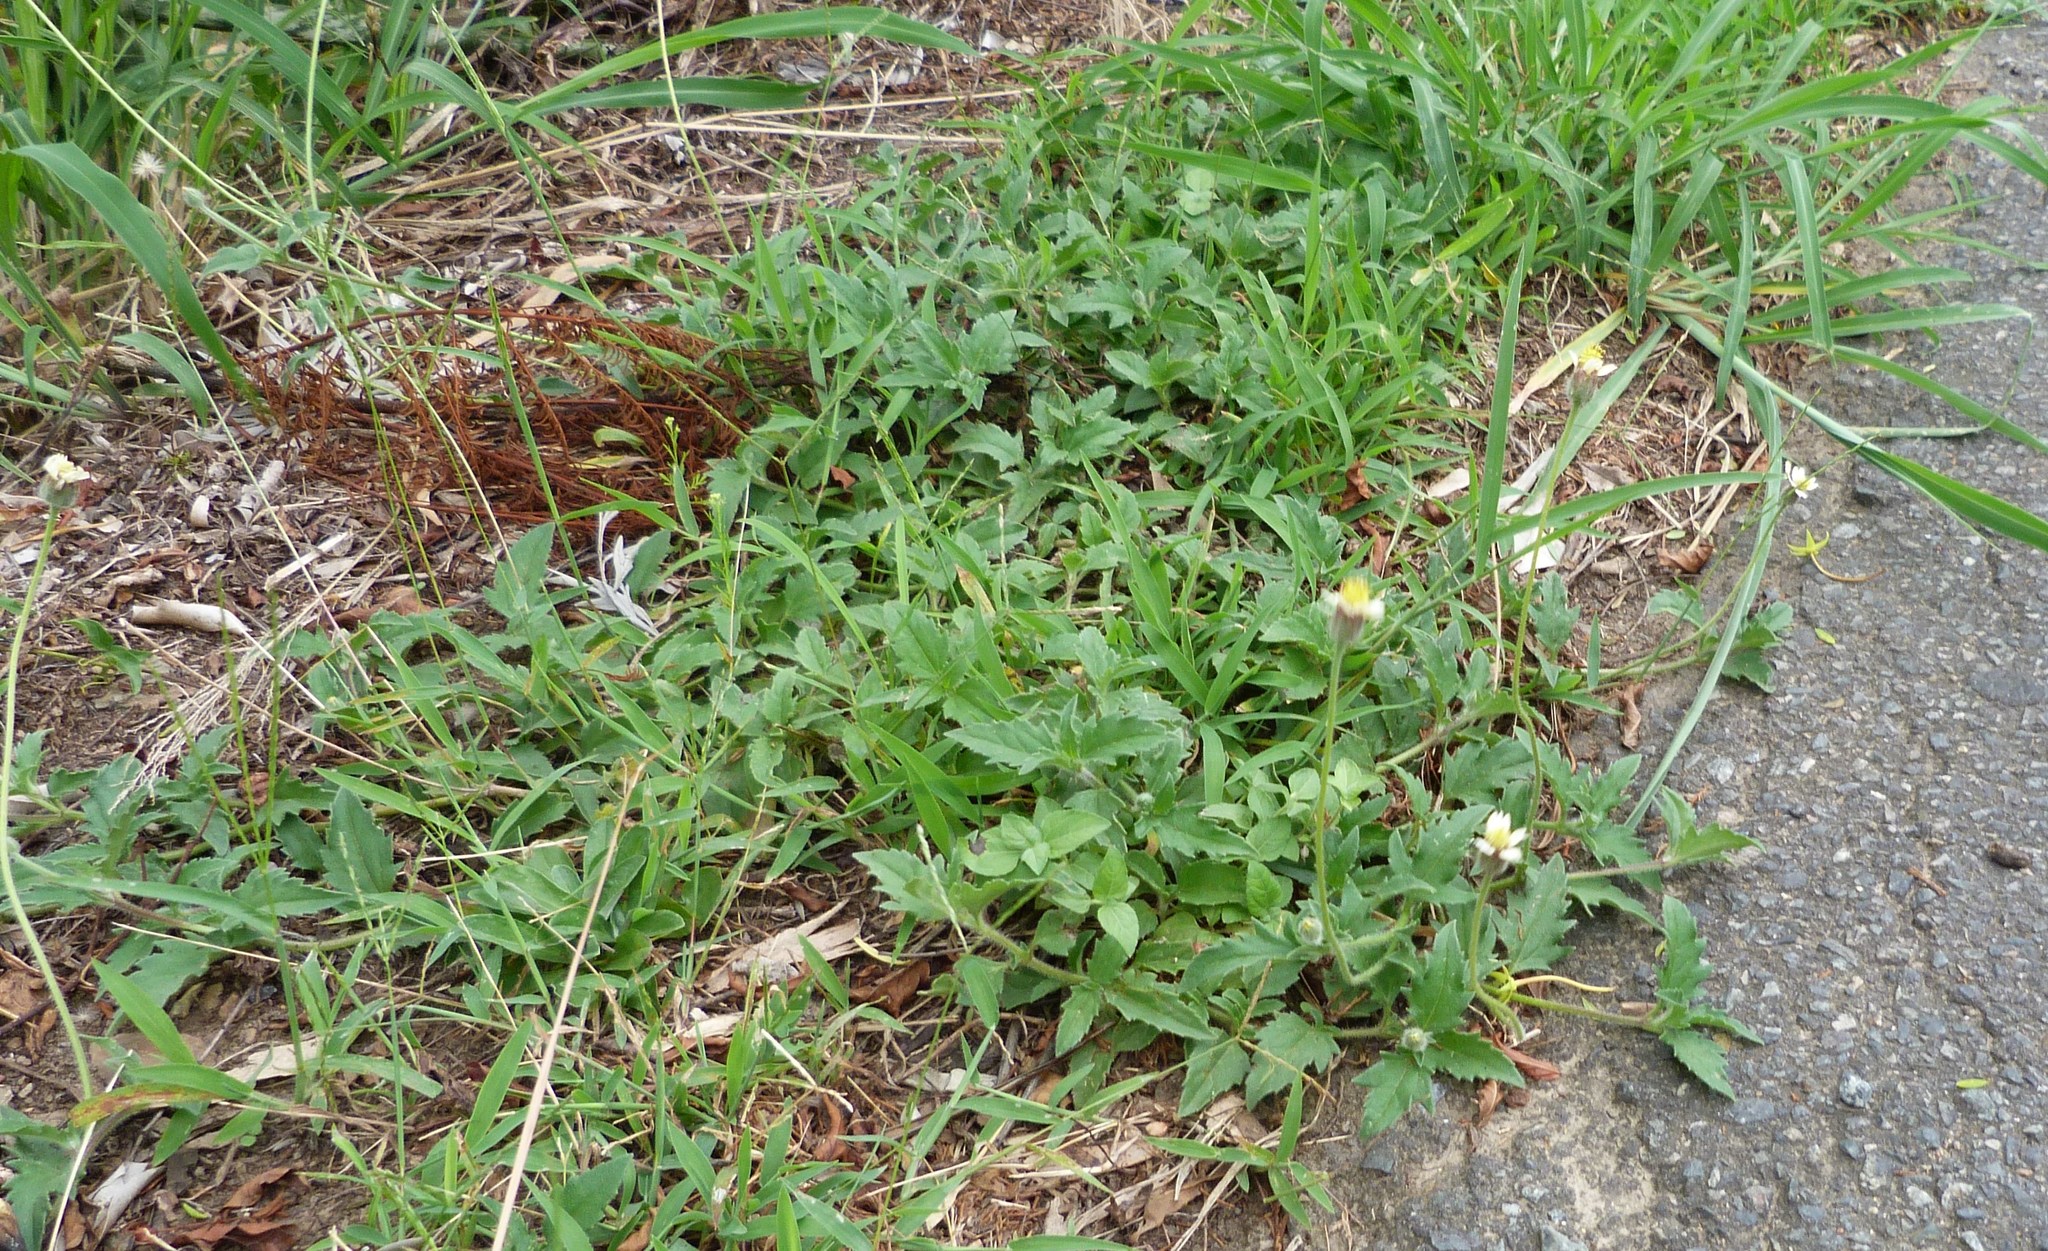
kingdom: Plantae
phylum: Tracheophyta
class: Magnoliopsida
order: Asterales
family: Asteraceae
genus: Tridax
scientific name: Tridax procumbens
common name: Coatbuttons
